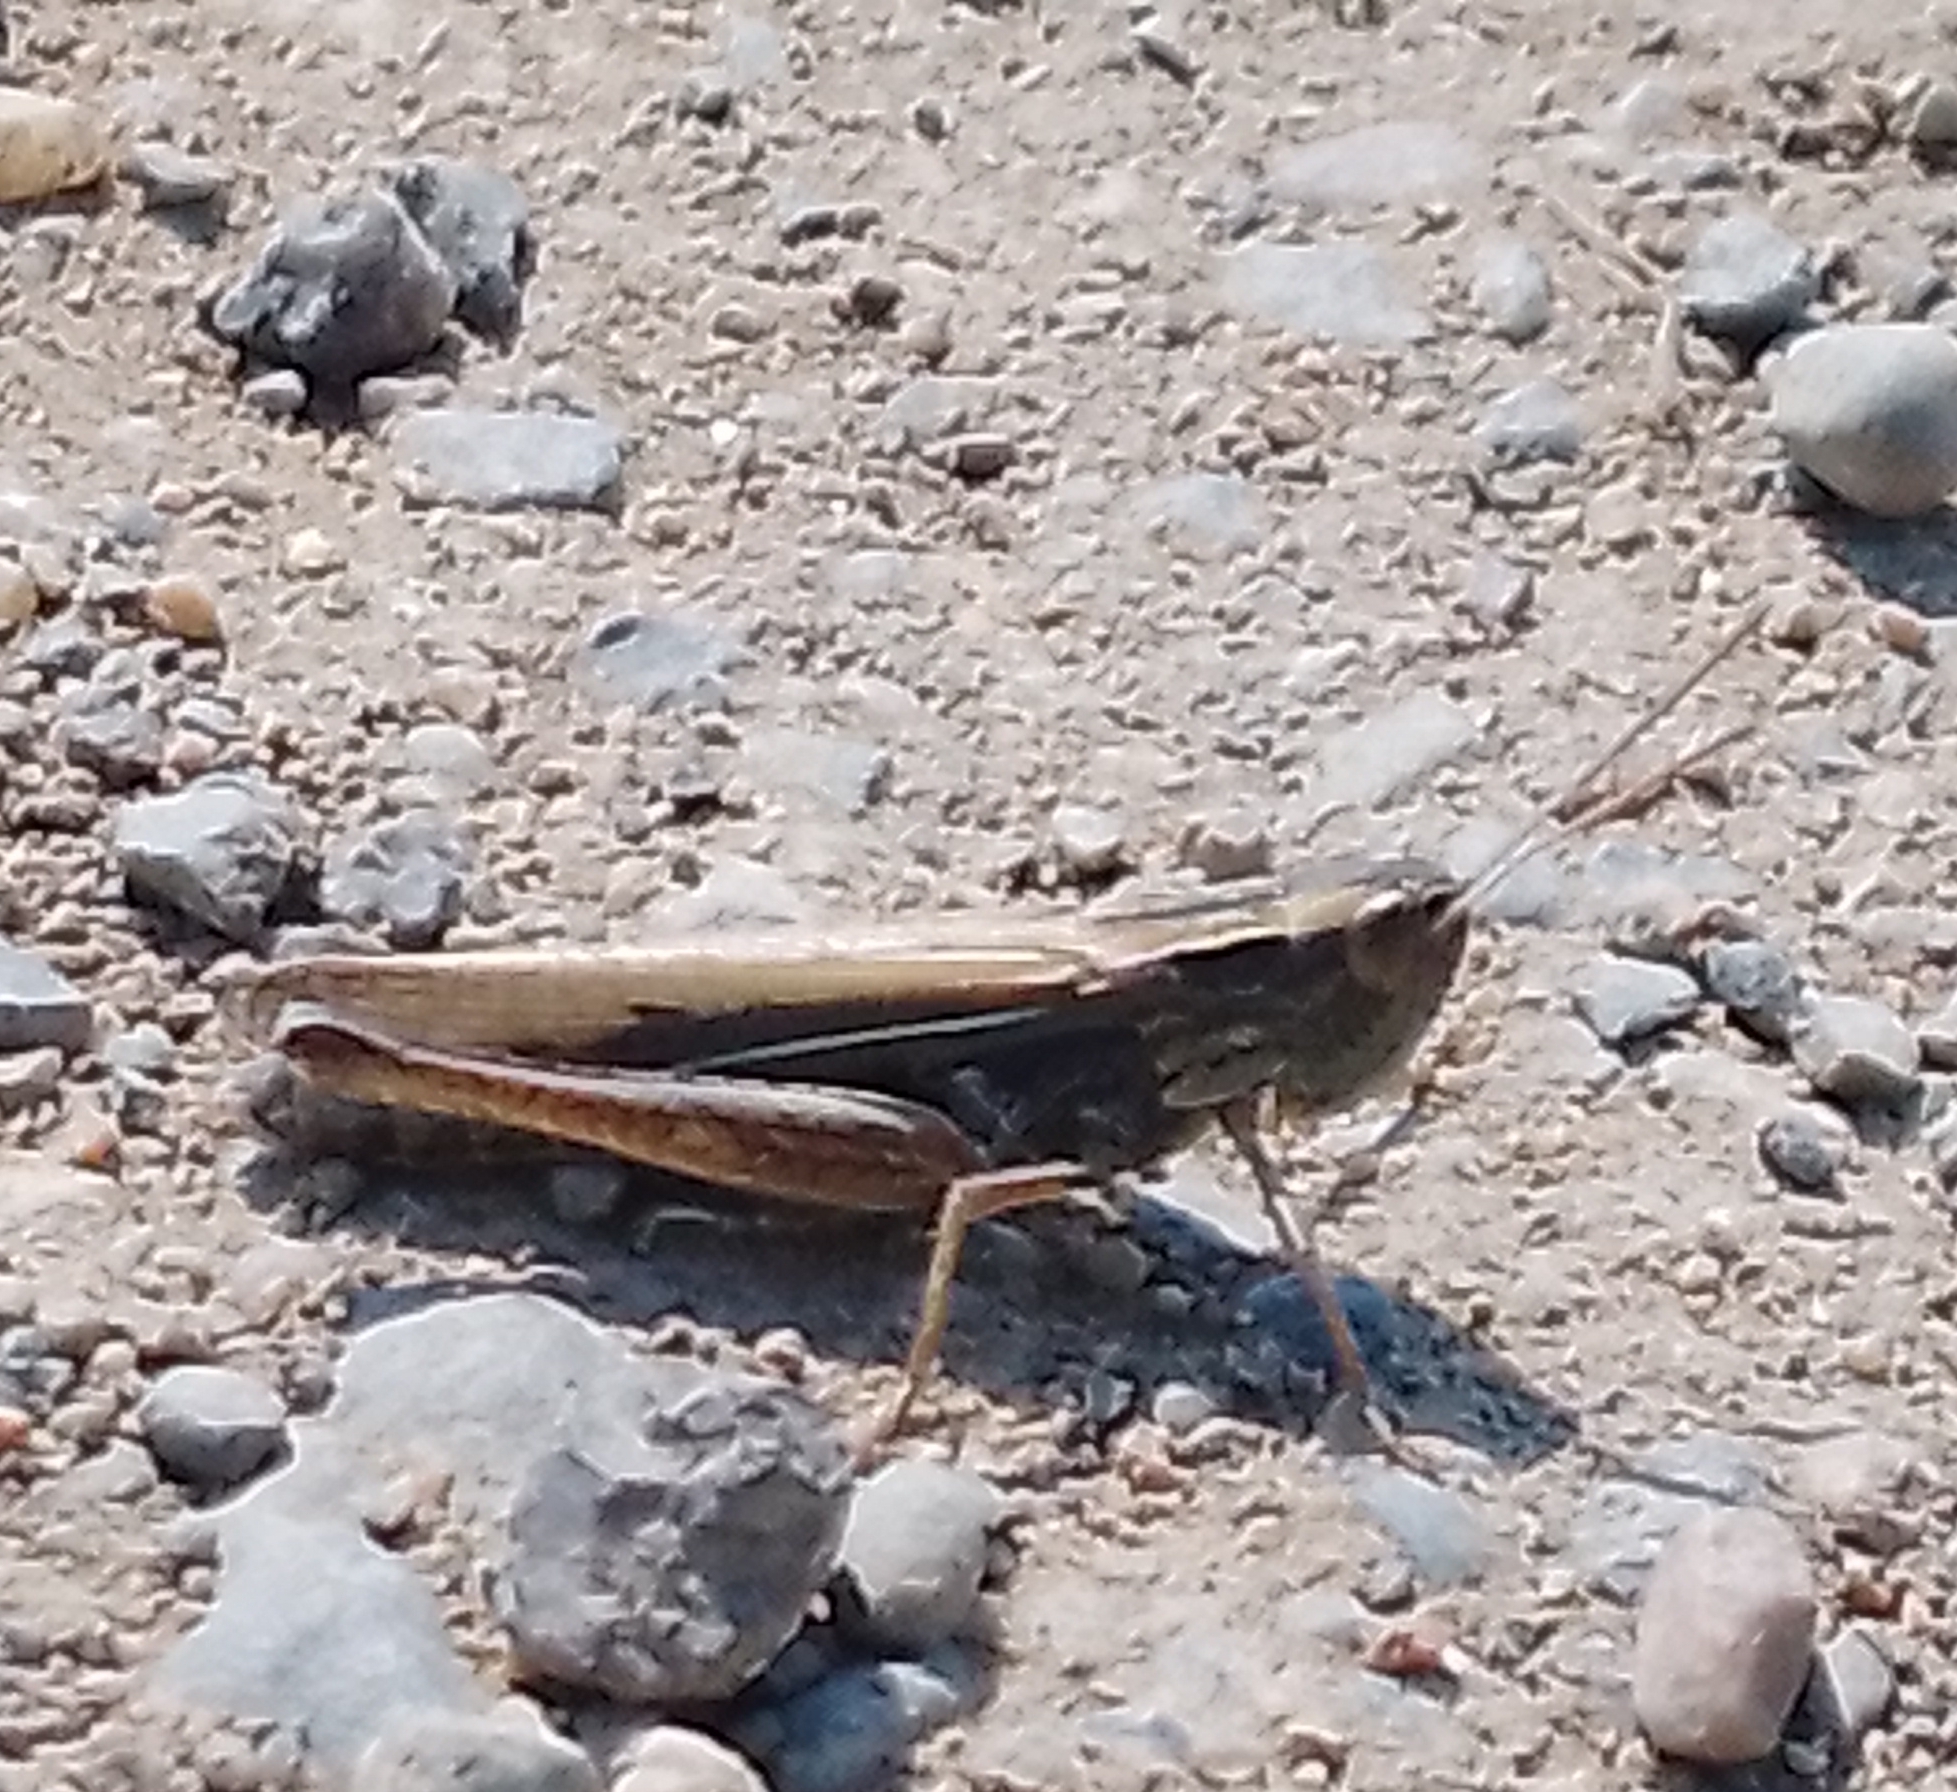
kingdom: Animalia
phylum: Arthropoda
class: Insecta
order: Orthoptera
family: Acrididae
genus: Chorthippus
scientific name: Chorthippus albomarginatus
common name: Lesser marsh grasshopper
